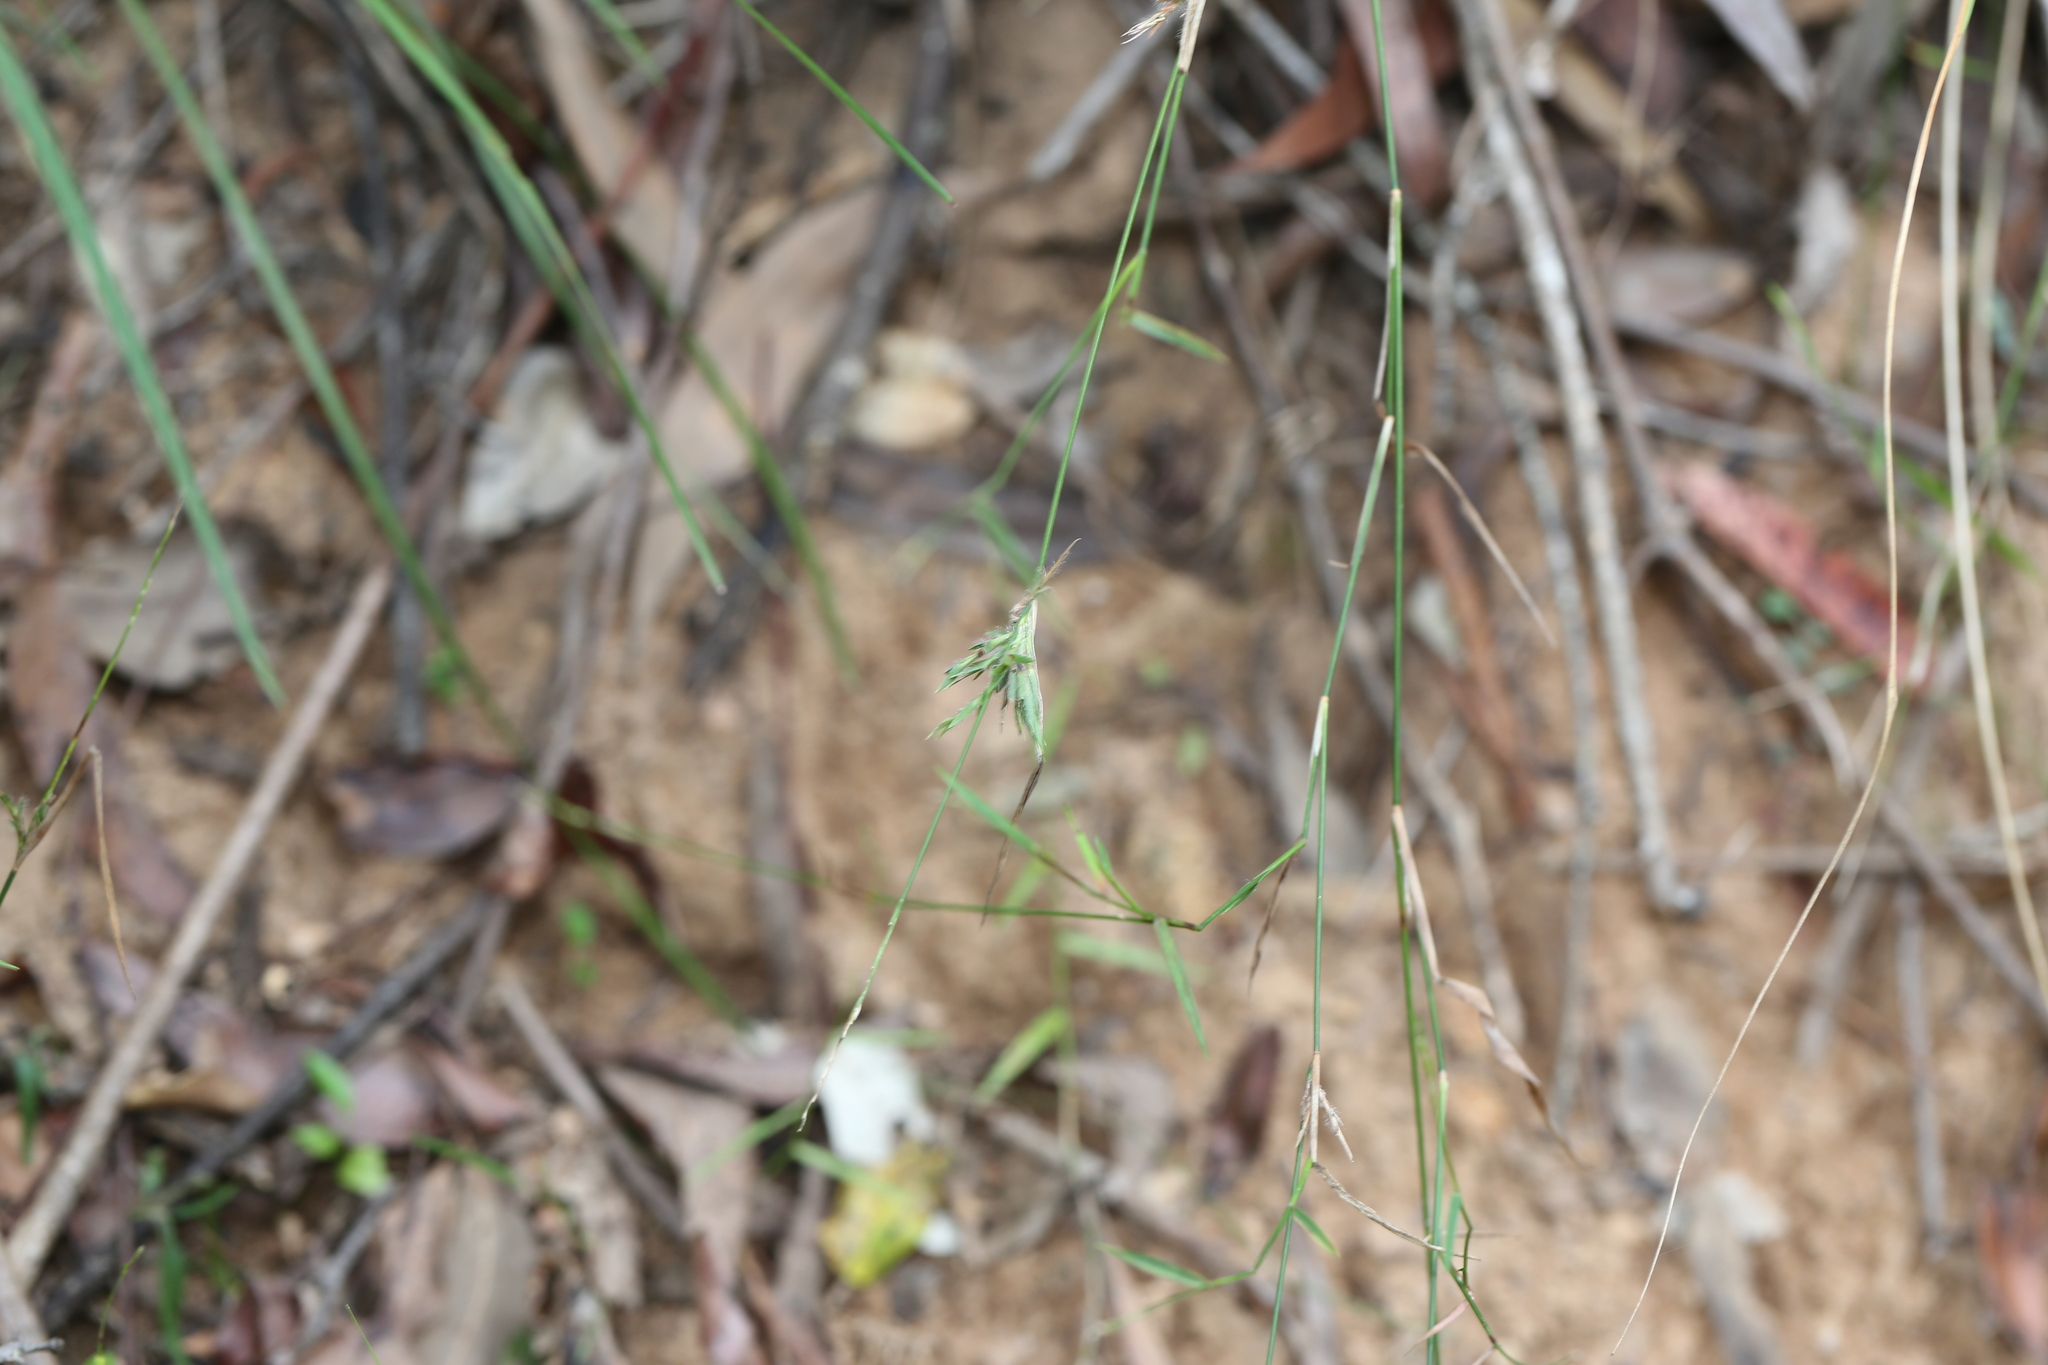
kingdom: Plantae
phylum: Tracheophyta
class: Liliopsida
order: Poales
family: Poaceae
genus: Entolasia
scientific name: Entolasia stricta
